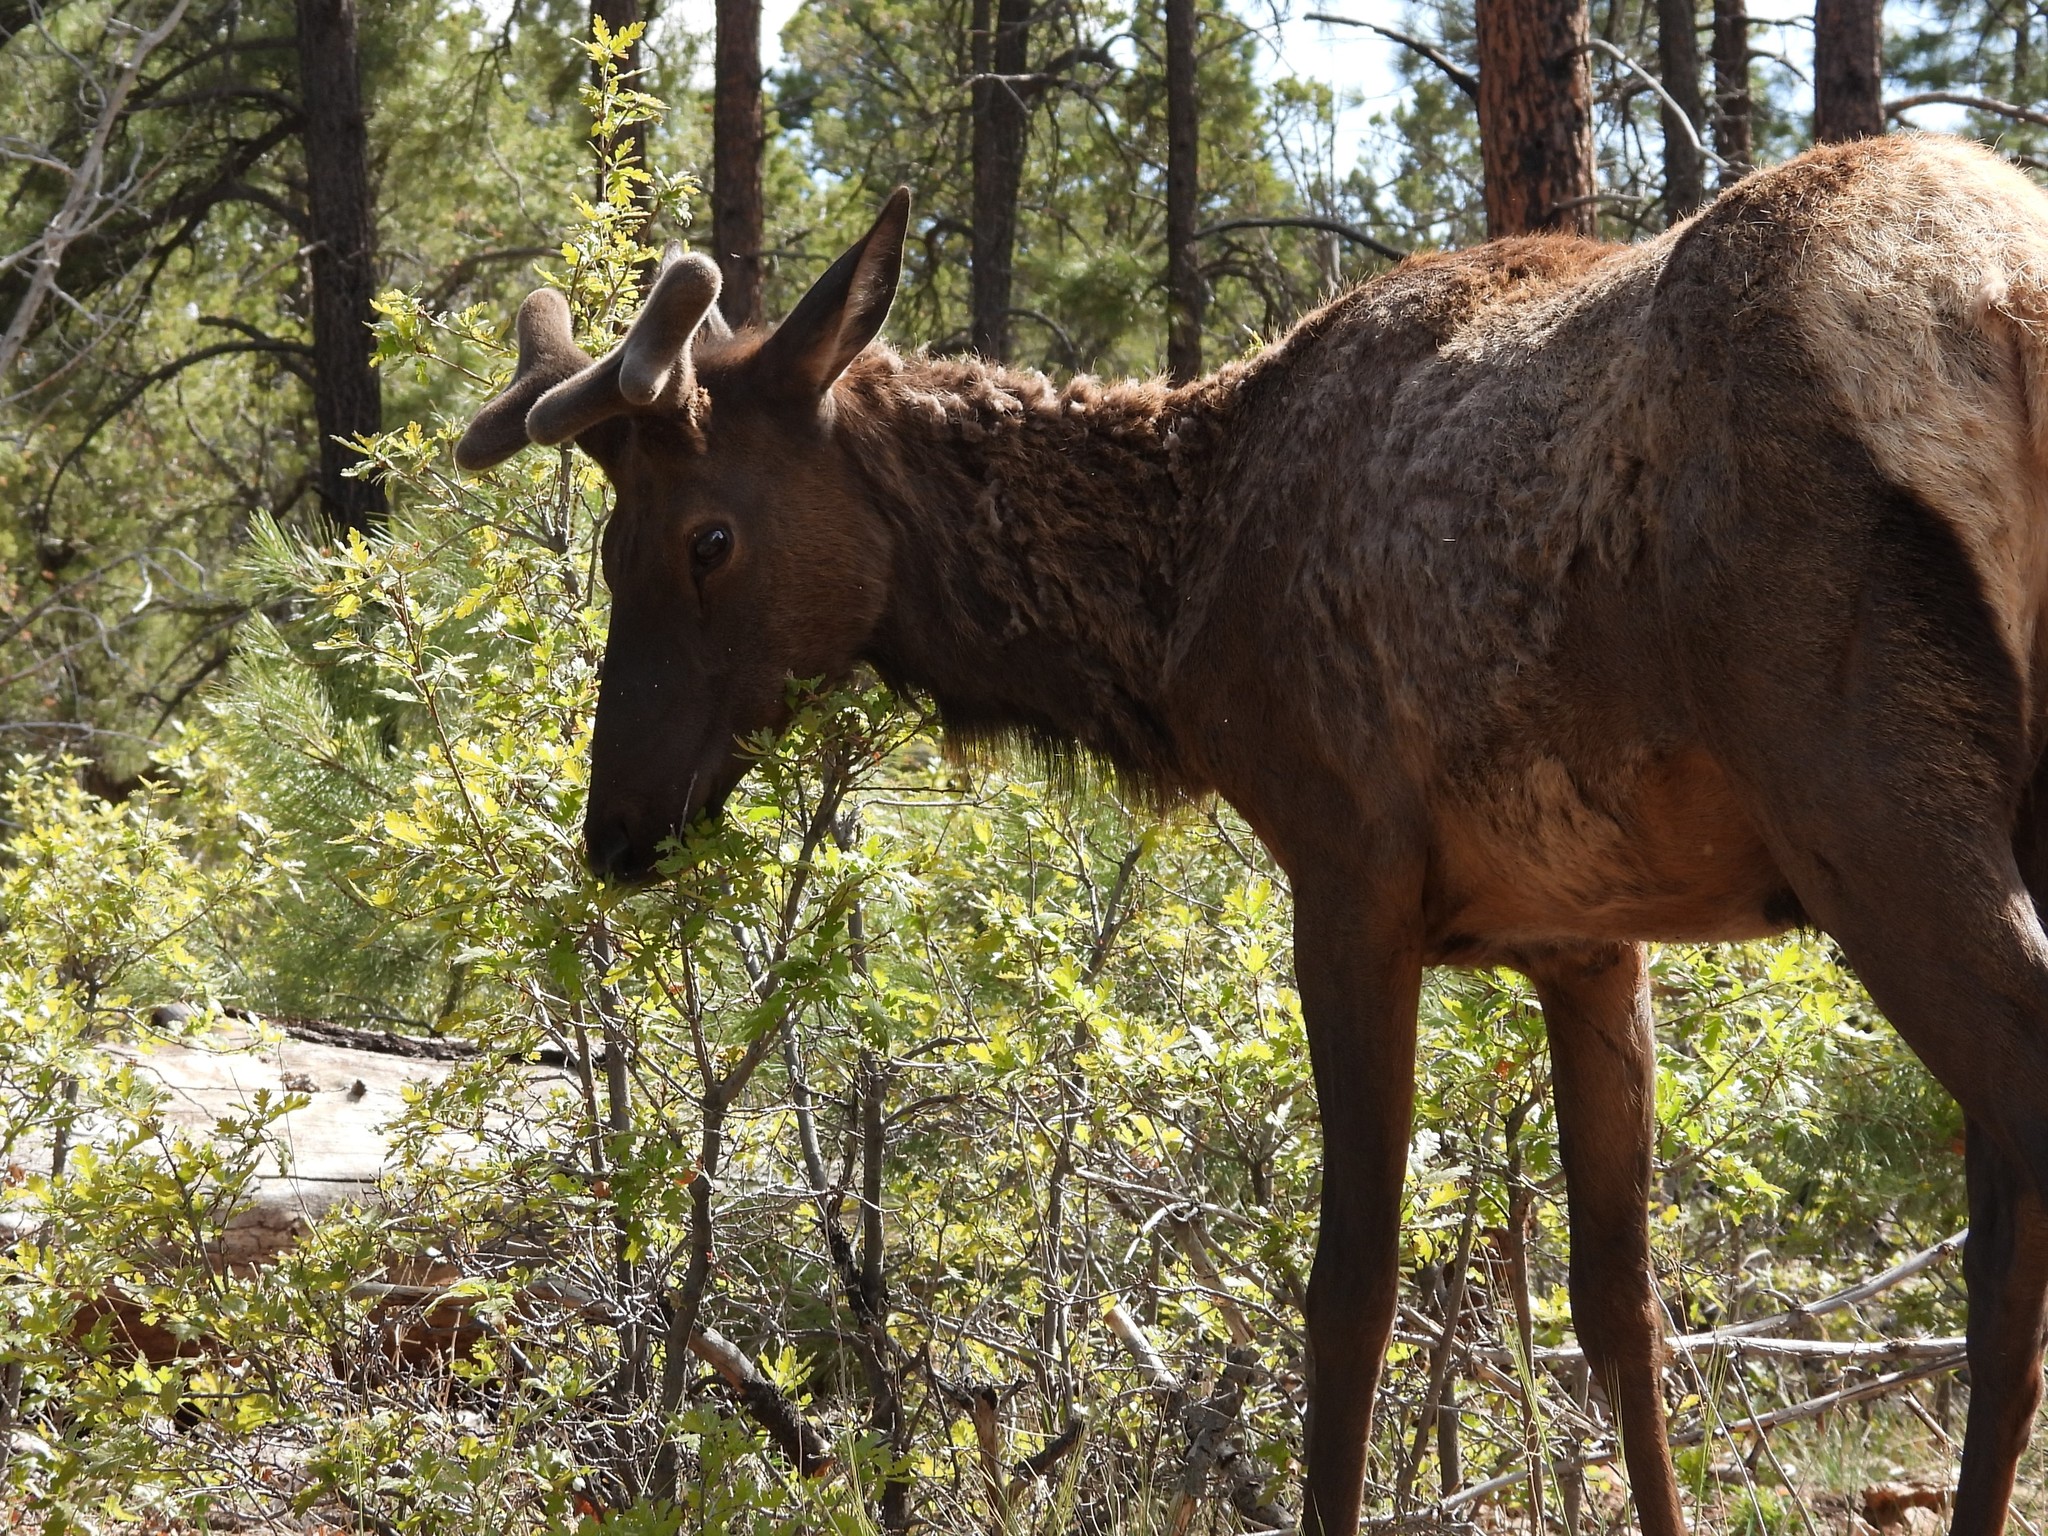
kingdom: Animalia
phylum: Chordata
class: Mammalia
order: Artiodactyla
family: Cervidae
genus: Cervus
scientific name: Cervus elaphus
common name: Red deer
